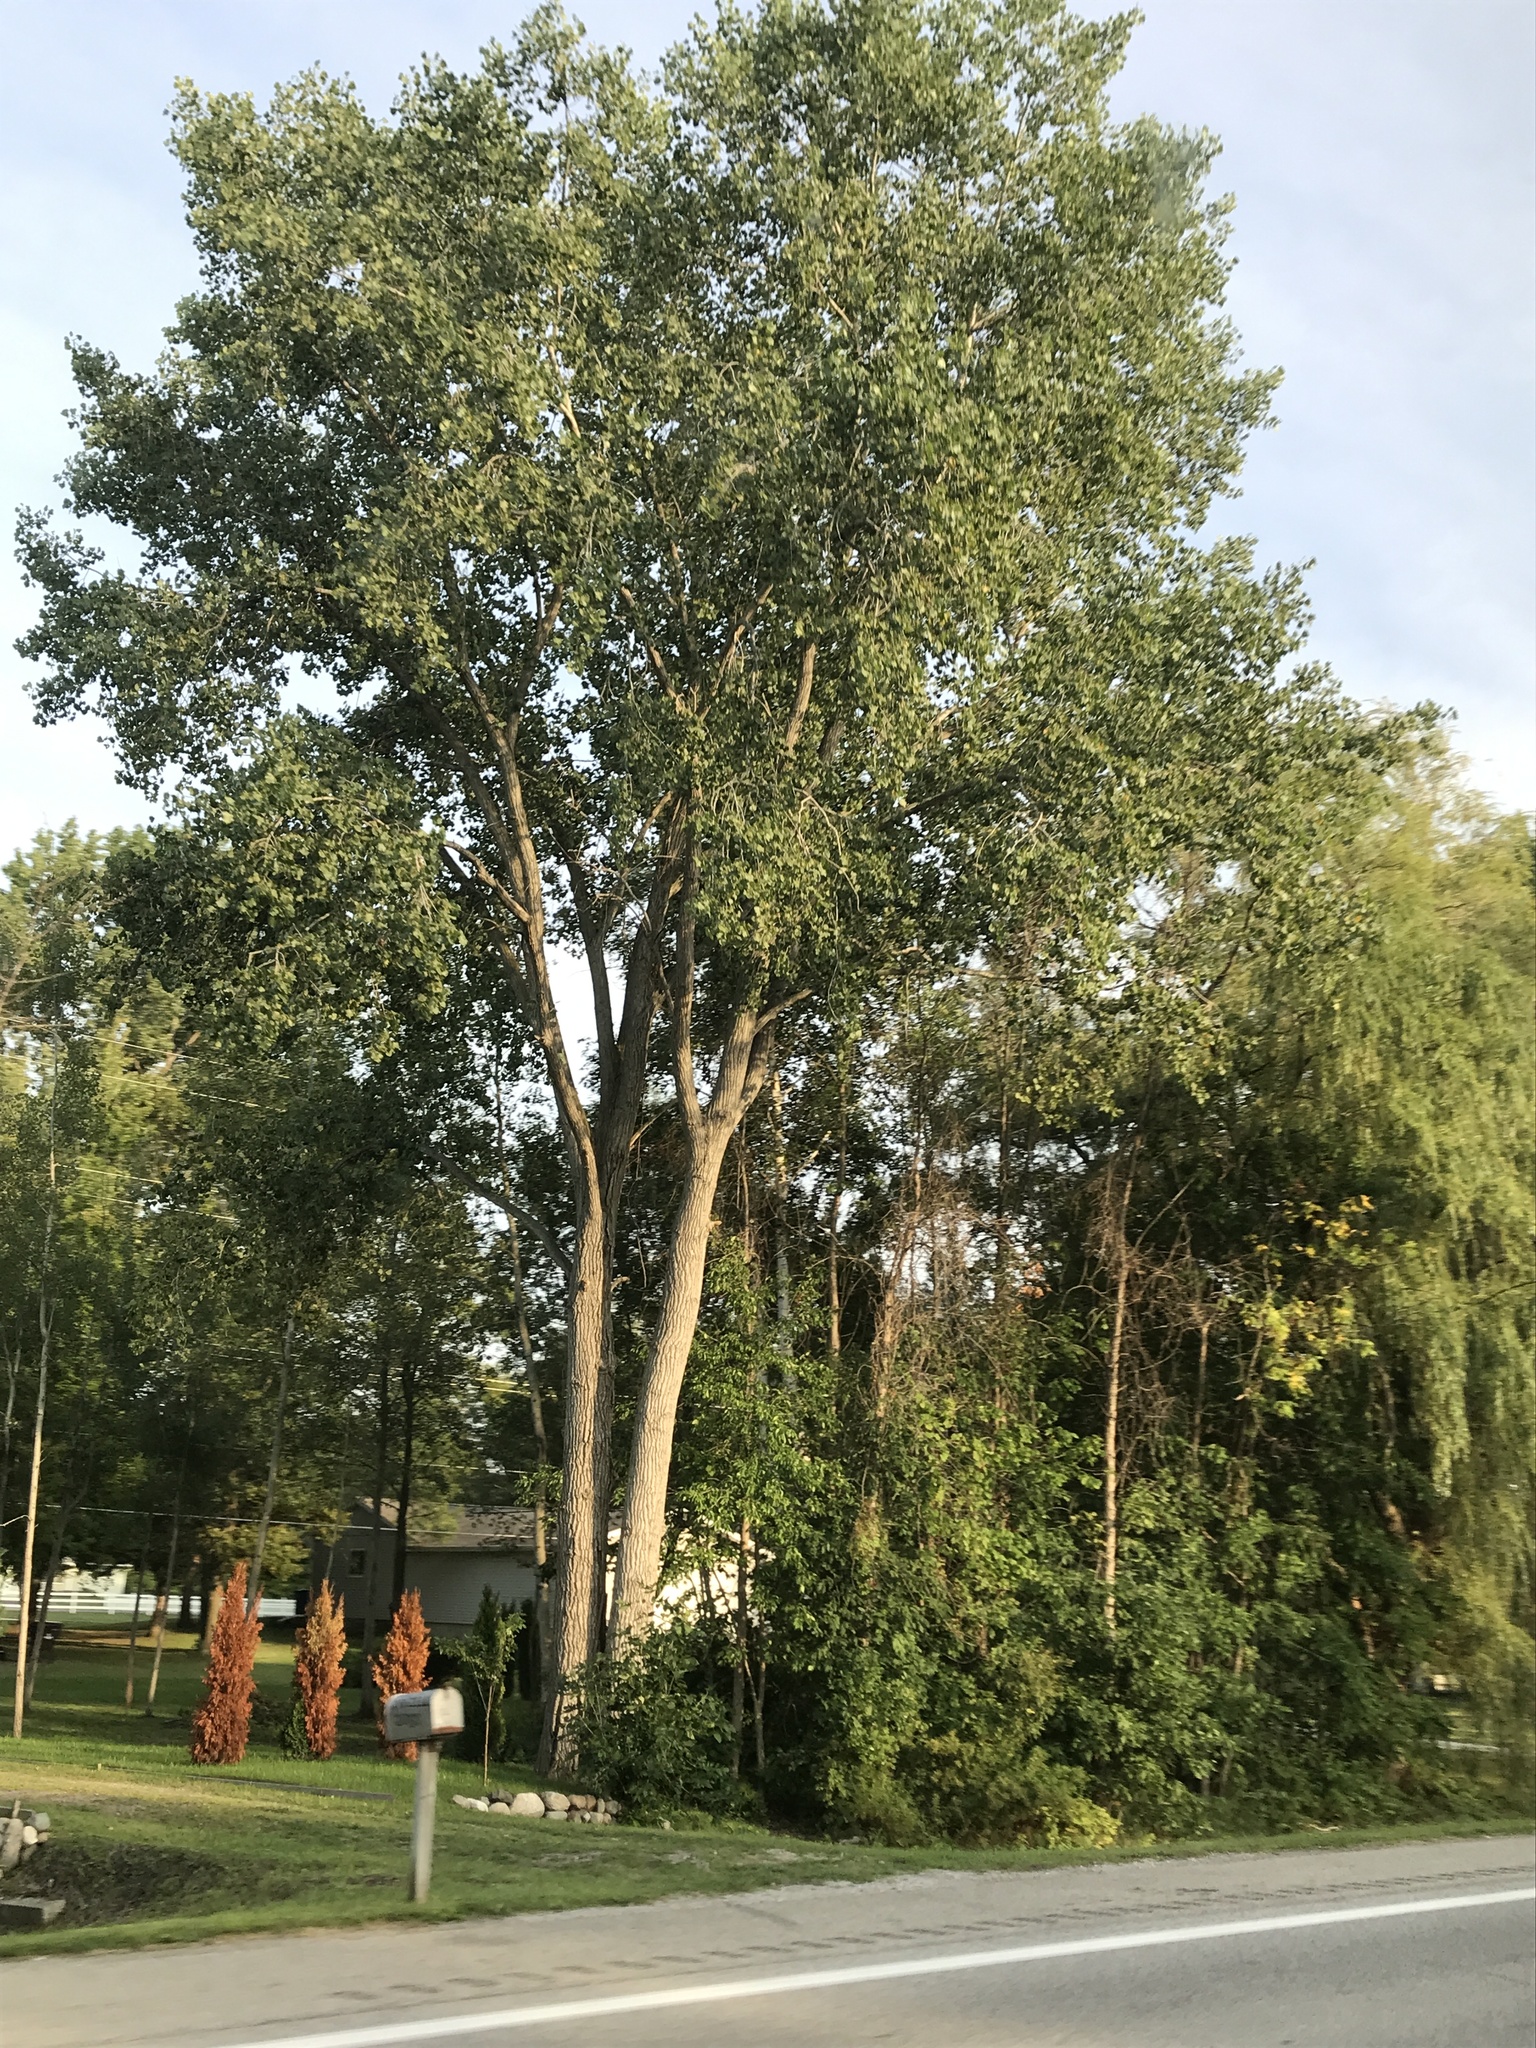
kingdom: Plantae
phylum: Tracheophyta
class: Magnoliopsida
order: Malpighiales
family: Salicaceae
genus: Populus
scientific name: Populus deltoides
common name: Eastern cottonwood
